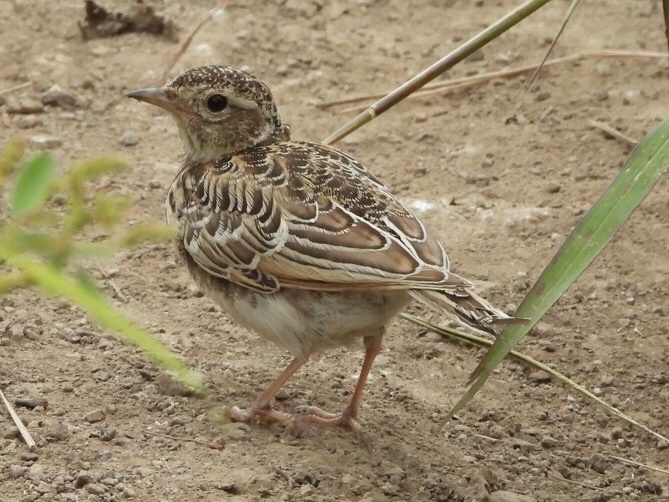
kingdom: Animalia
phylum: Chordata
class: Aves
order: Passeriformes
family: Alaudidae
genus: Alauda
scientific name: Alauda arvensis
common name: Eurasian skylark
